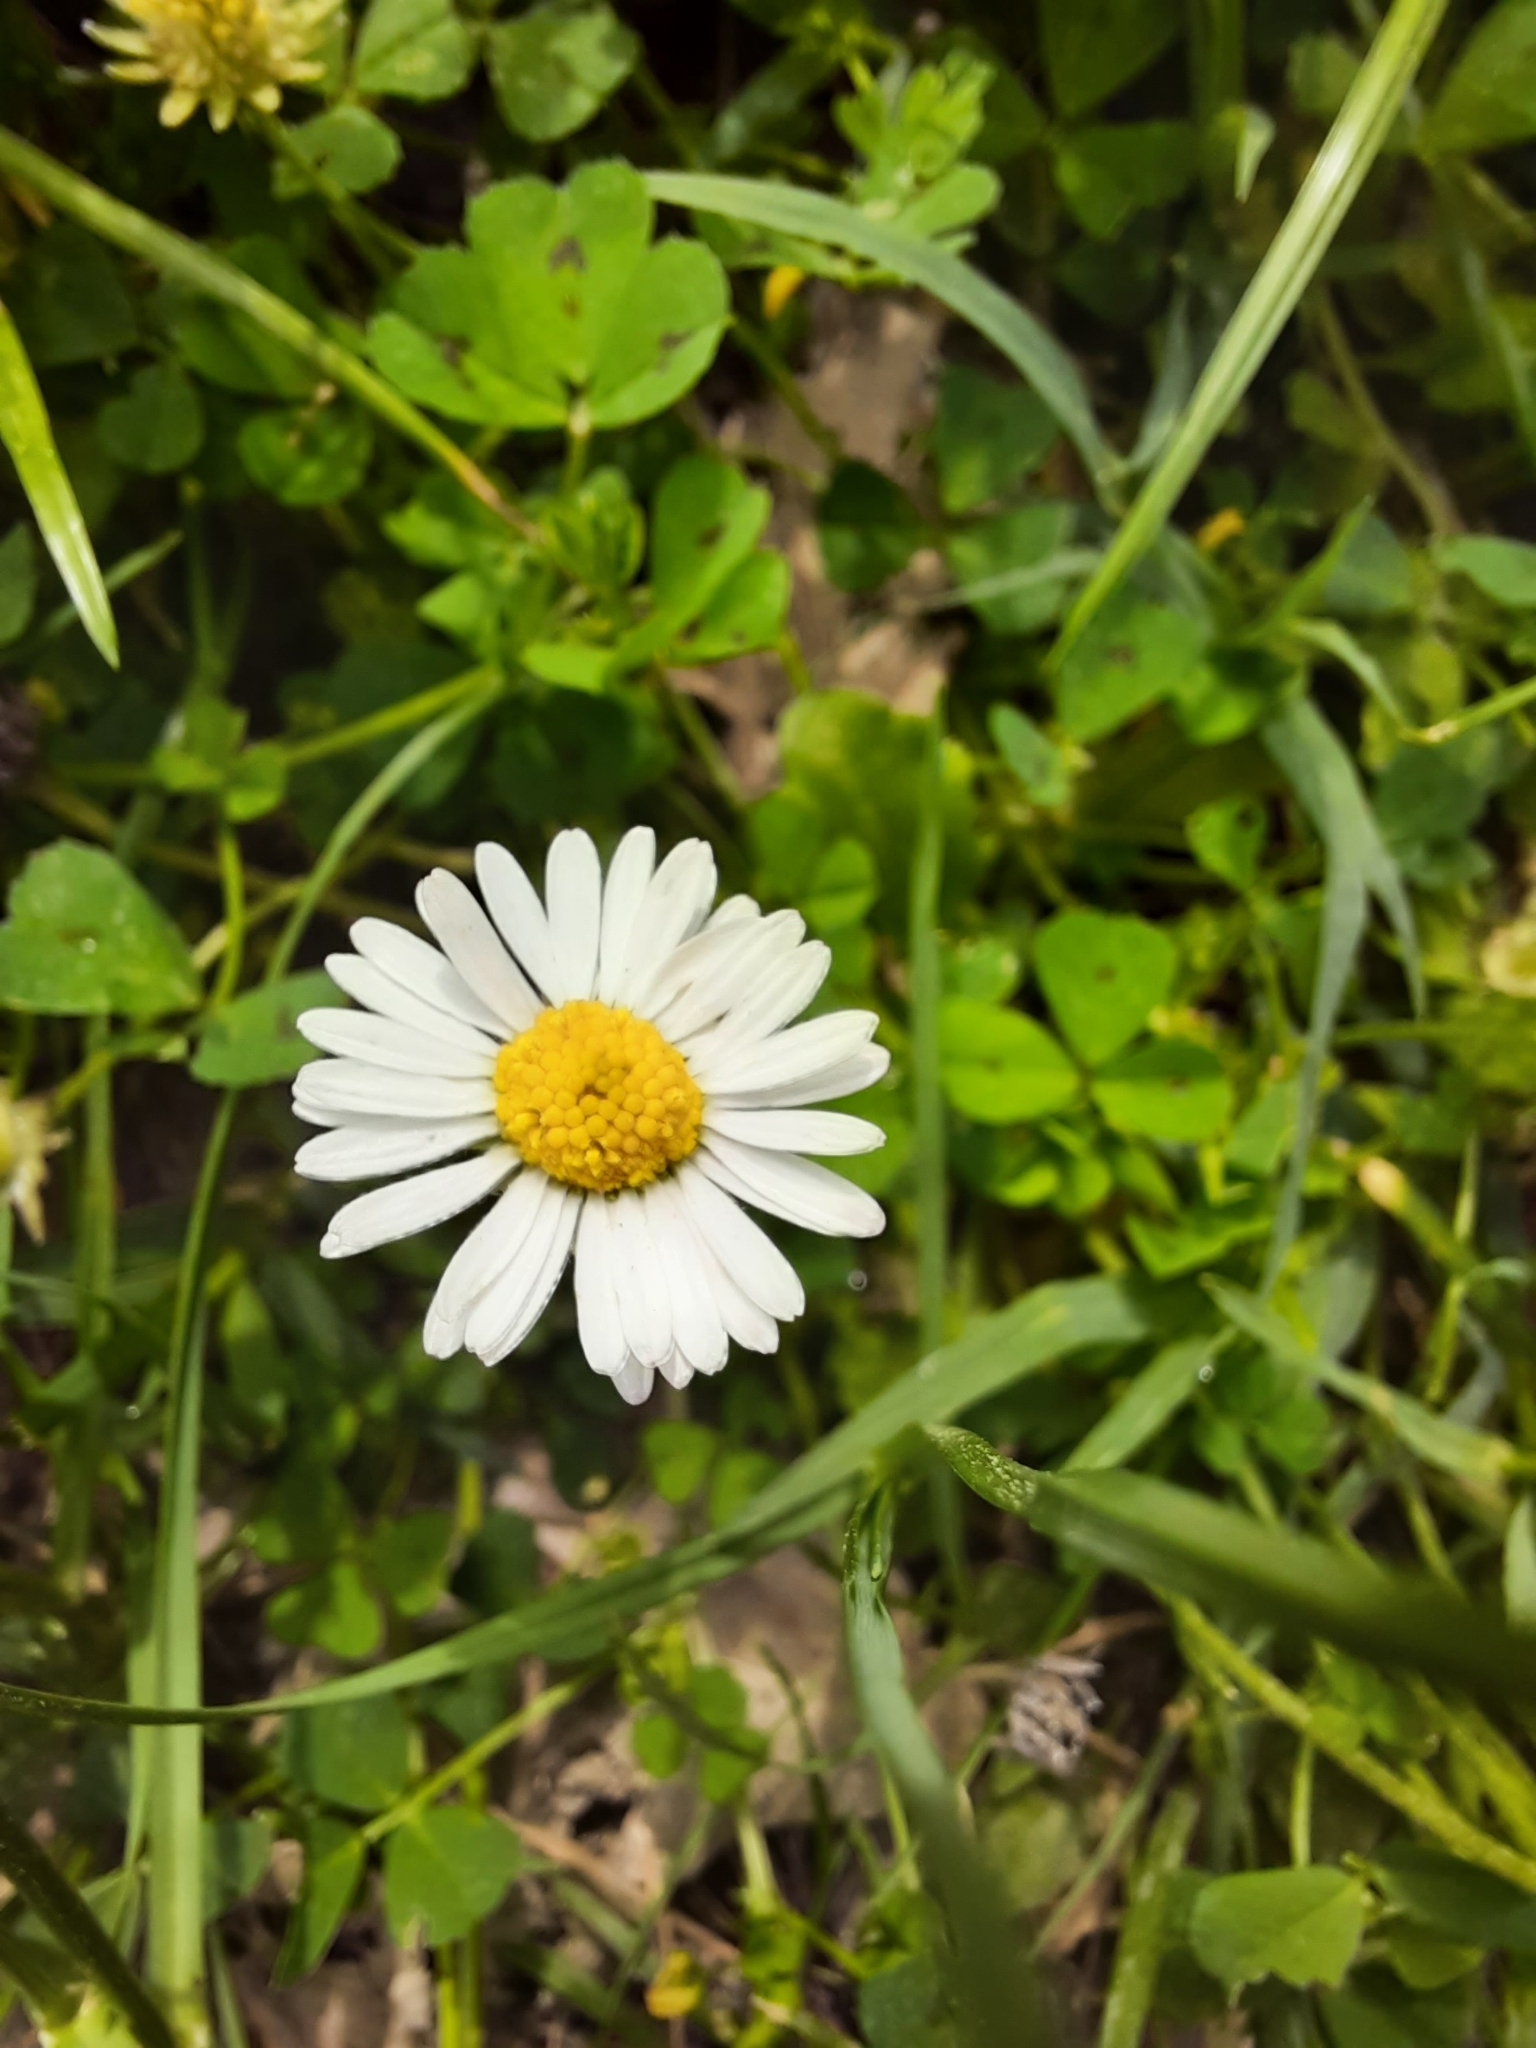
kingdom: Plantae
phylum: Tracheophyta
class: Magnoliopsida
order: Asterales
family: Asteraceae
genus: Bellis
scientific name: Bellis perennis
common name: Lawndaisy
